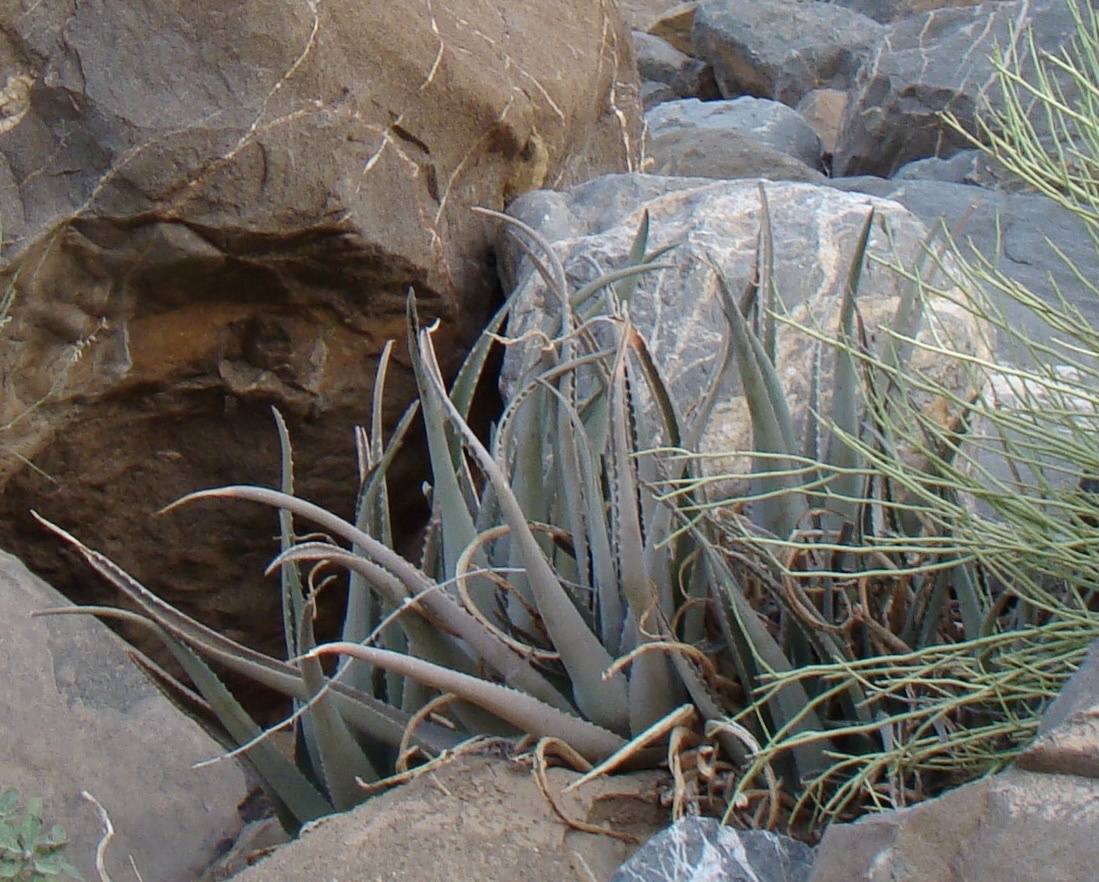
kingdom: Plantae
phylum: Tracheophyta
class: Liliopsida
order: Asparagales
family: Asphodelaceae
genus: Aloe
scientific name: Aloe vera
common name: Barbados aloe
